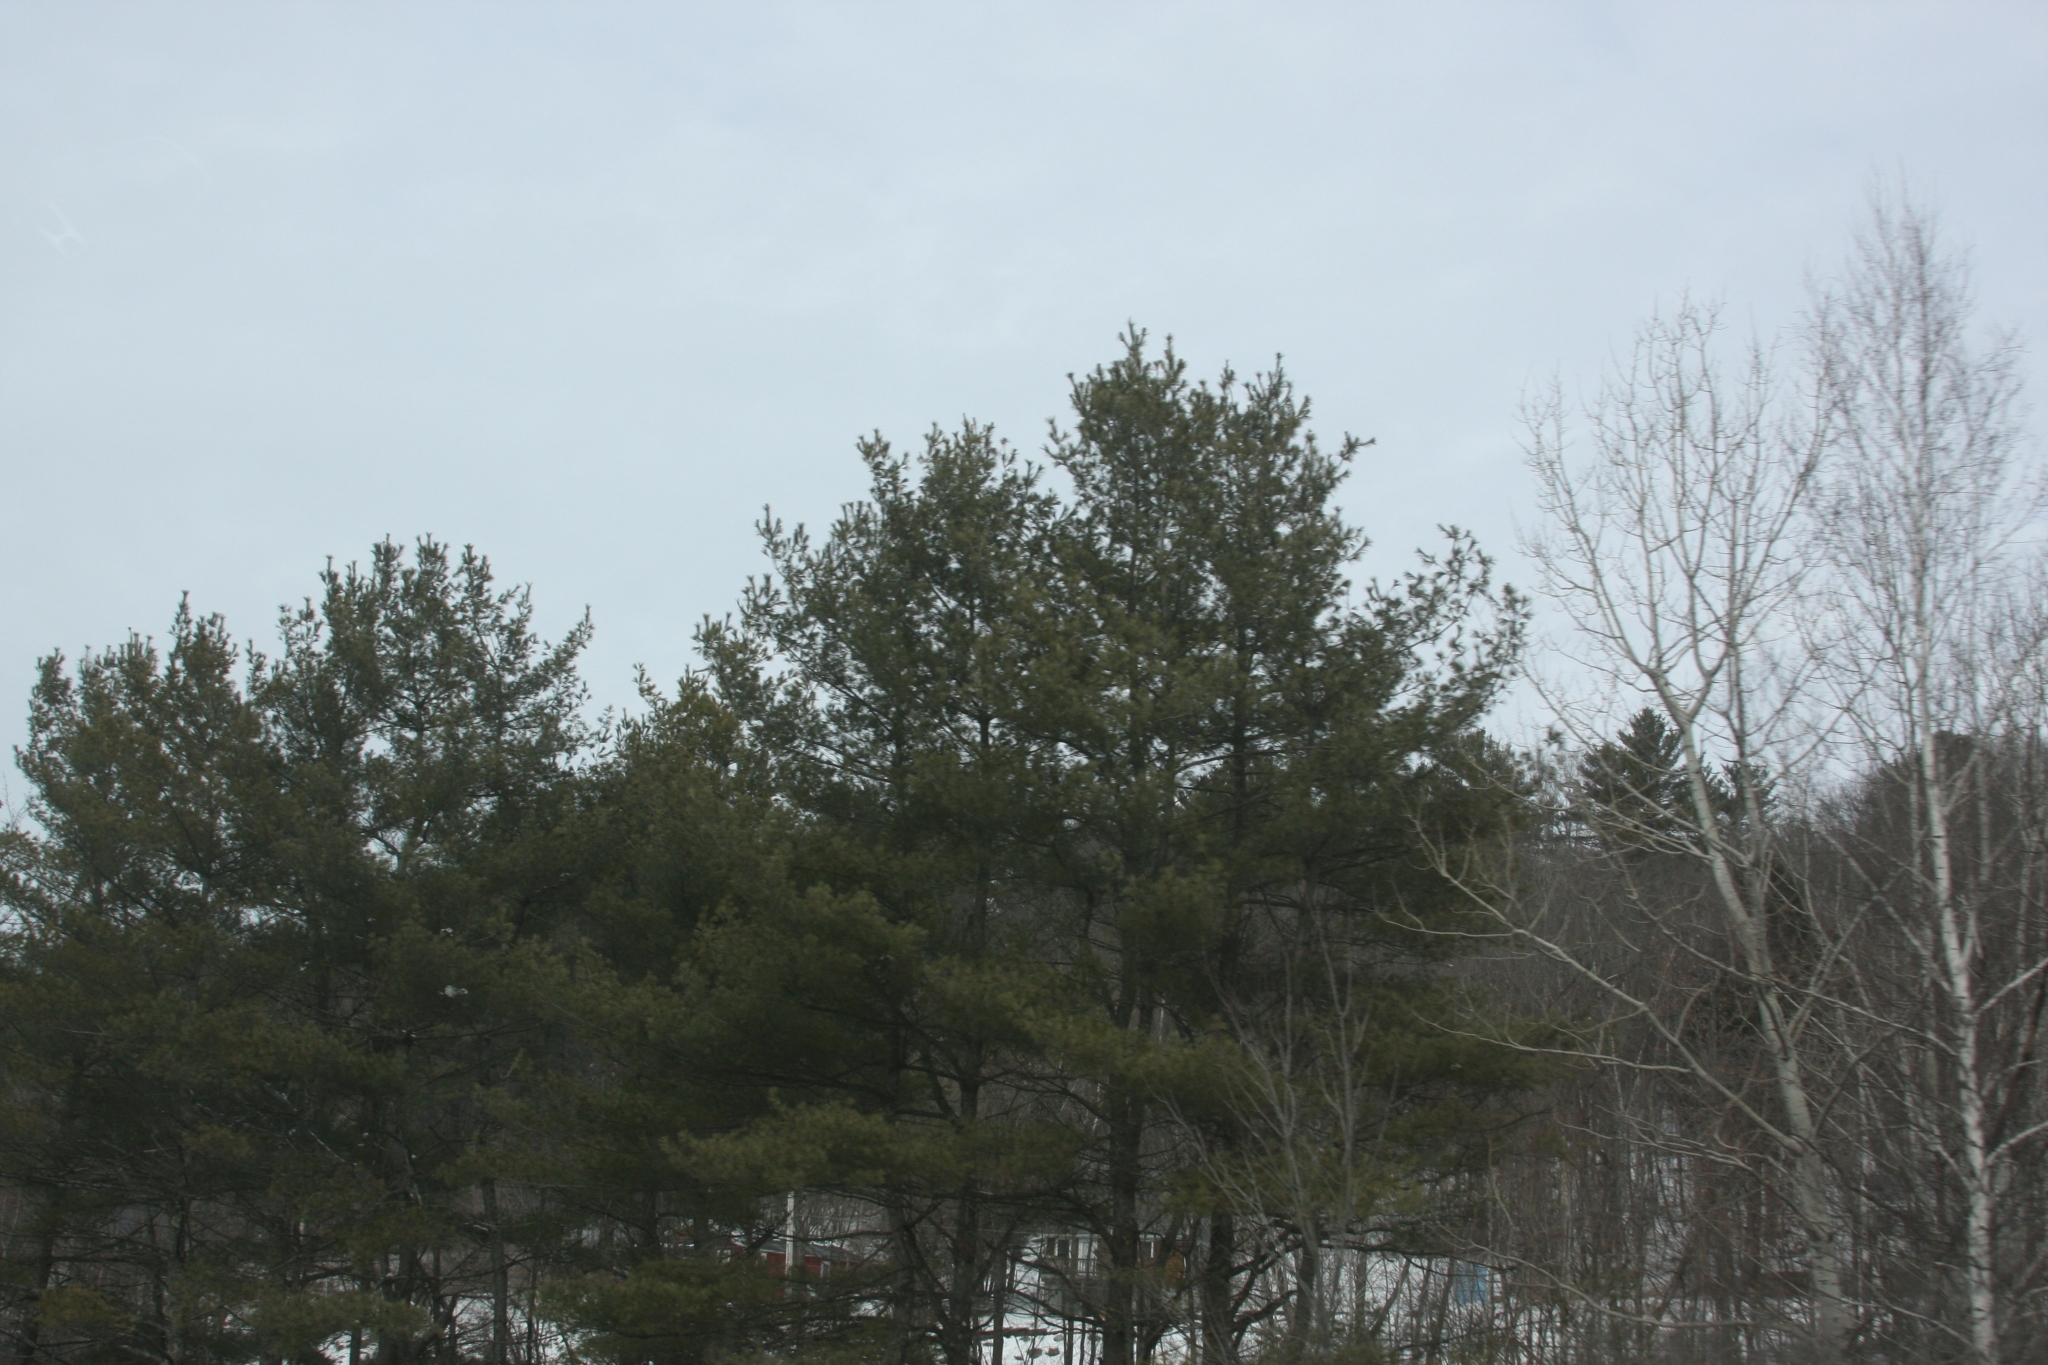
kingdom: Plantae
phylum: Tracheophyta
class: Pinopsida
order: Pinales
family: Pinaceae
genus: Pinus
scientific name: Pinus strobus
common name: Weymouth pine
